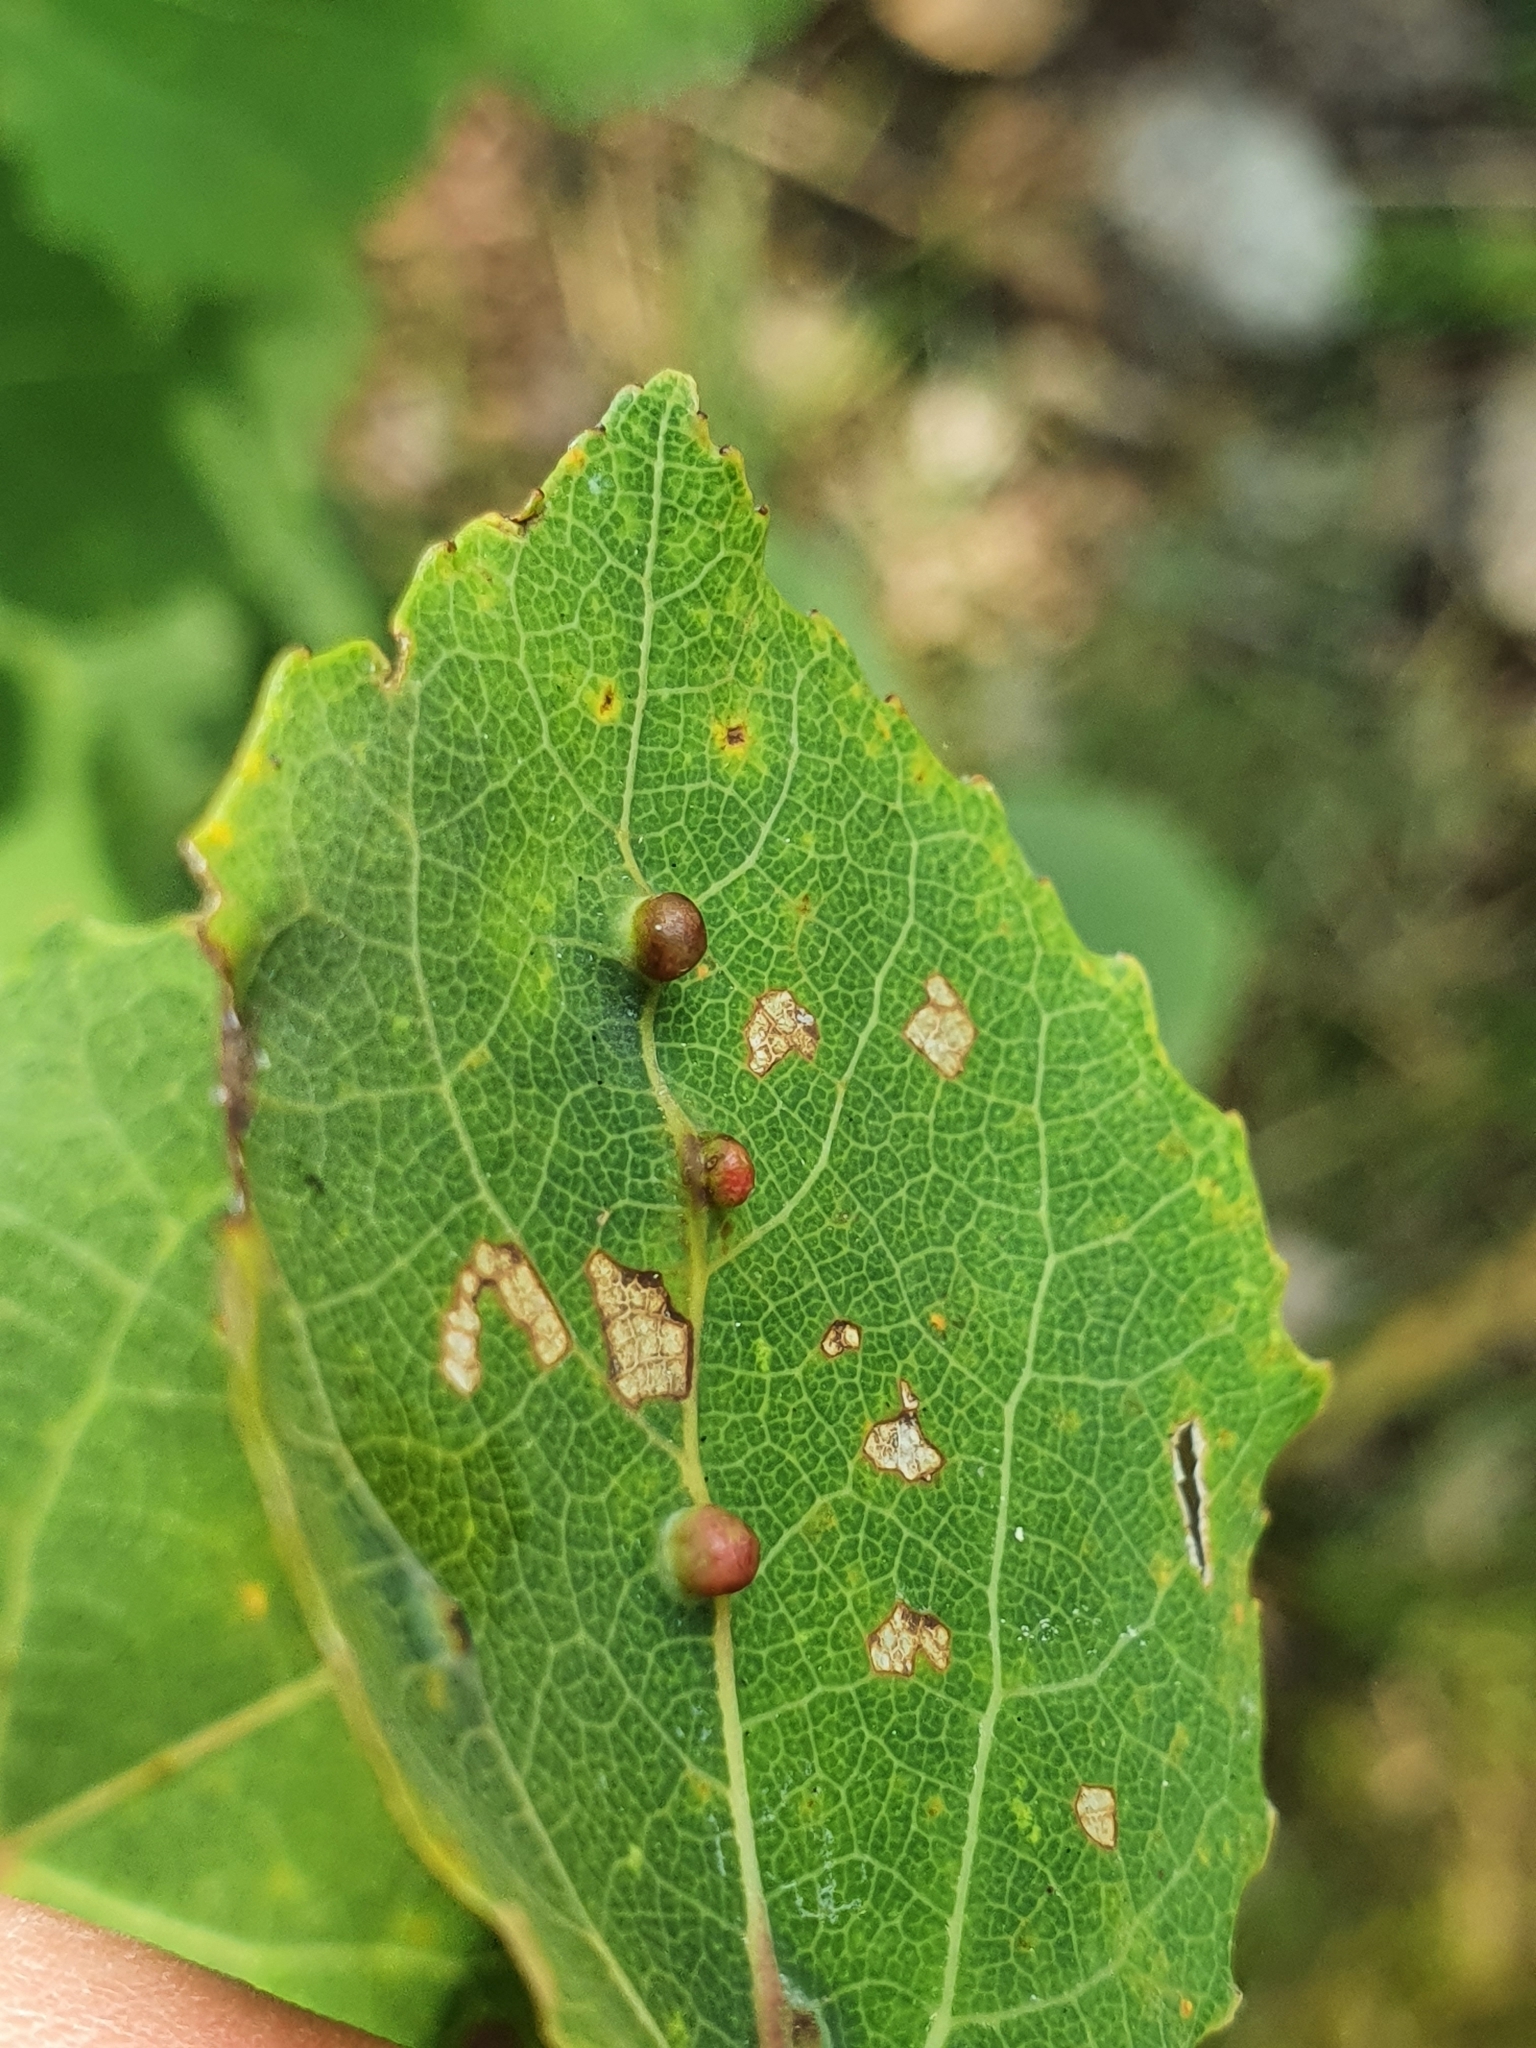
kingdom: Animalia
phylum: Arthropoda
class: Insecta
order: Diptera
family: Cecidomyiidae
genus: Harmandiola
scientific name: Harmandiola globuli
